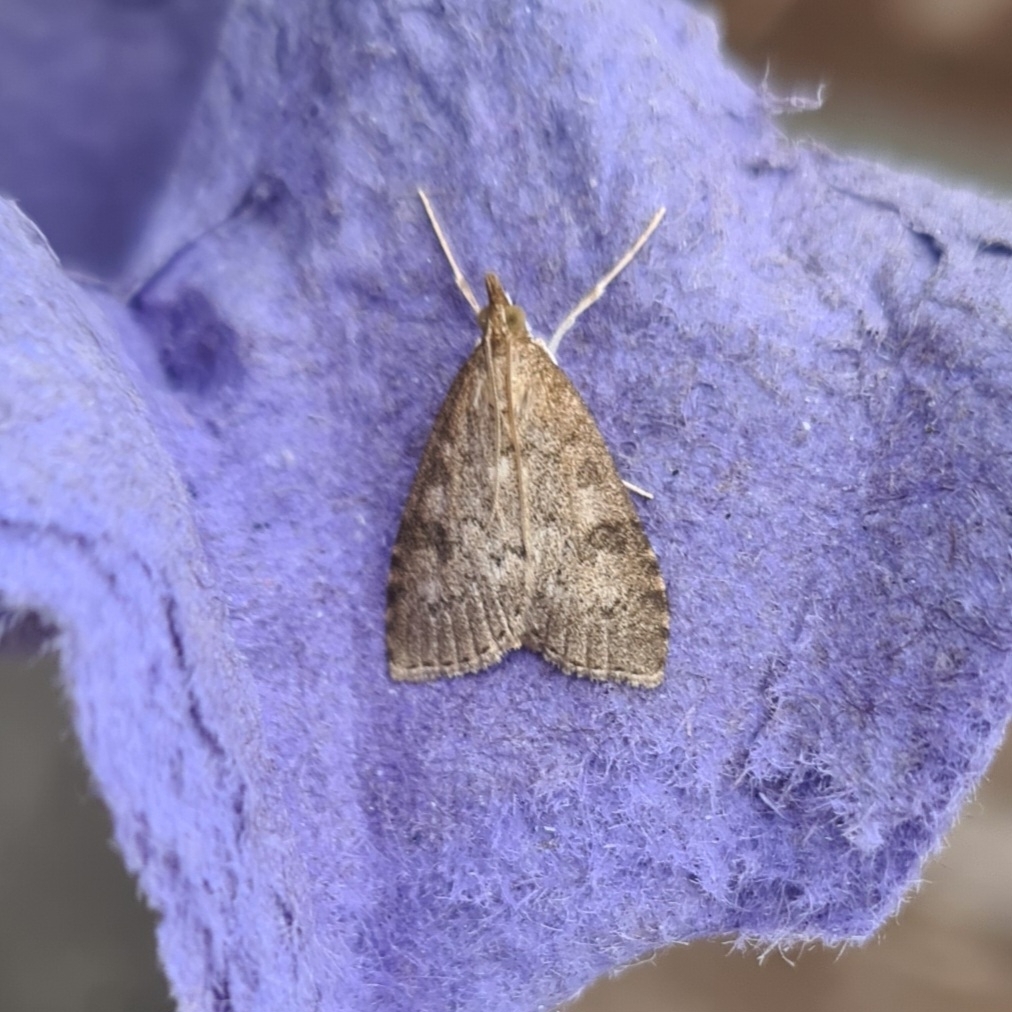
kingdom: Animalia
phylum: Arthropoda
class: Insecta
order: Lepidoptera
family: Crambidae
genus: Udea
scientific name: Udea prunalis
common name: Dusky pearl
